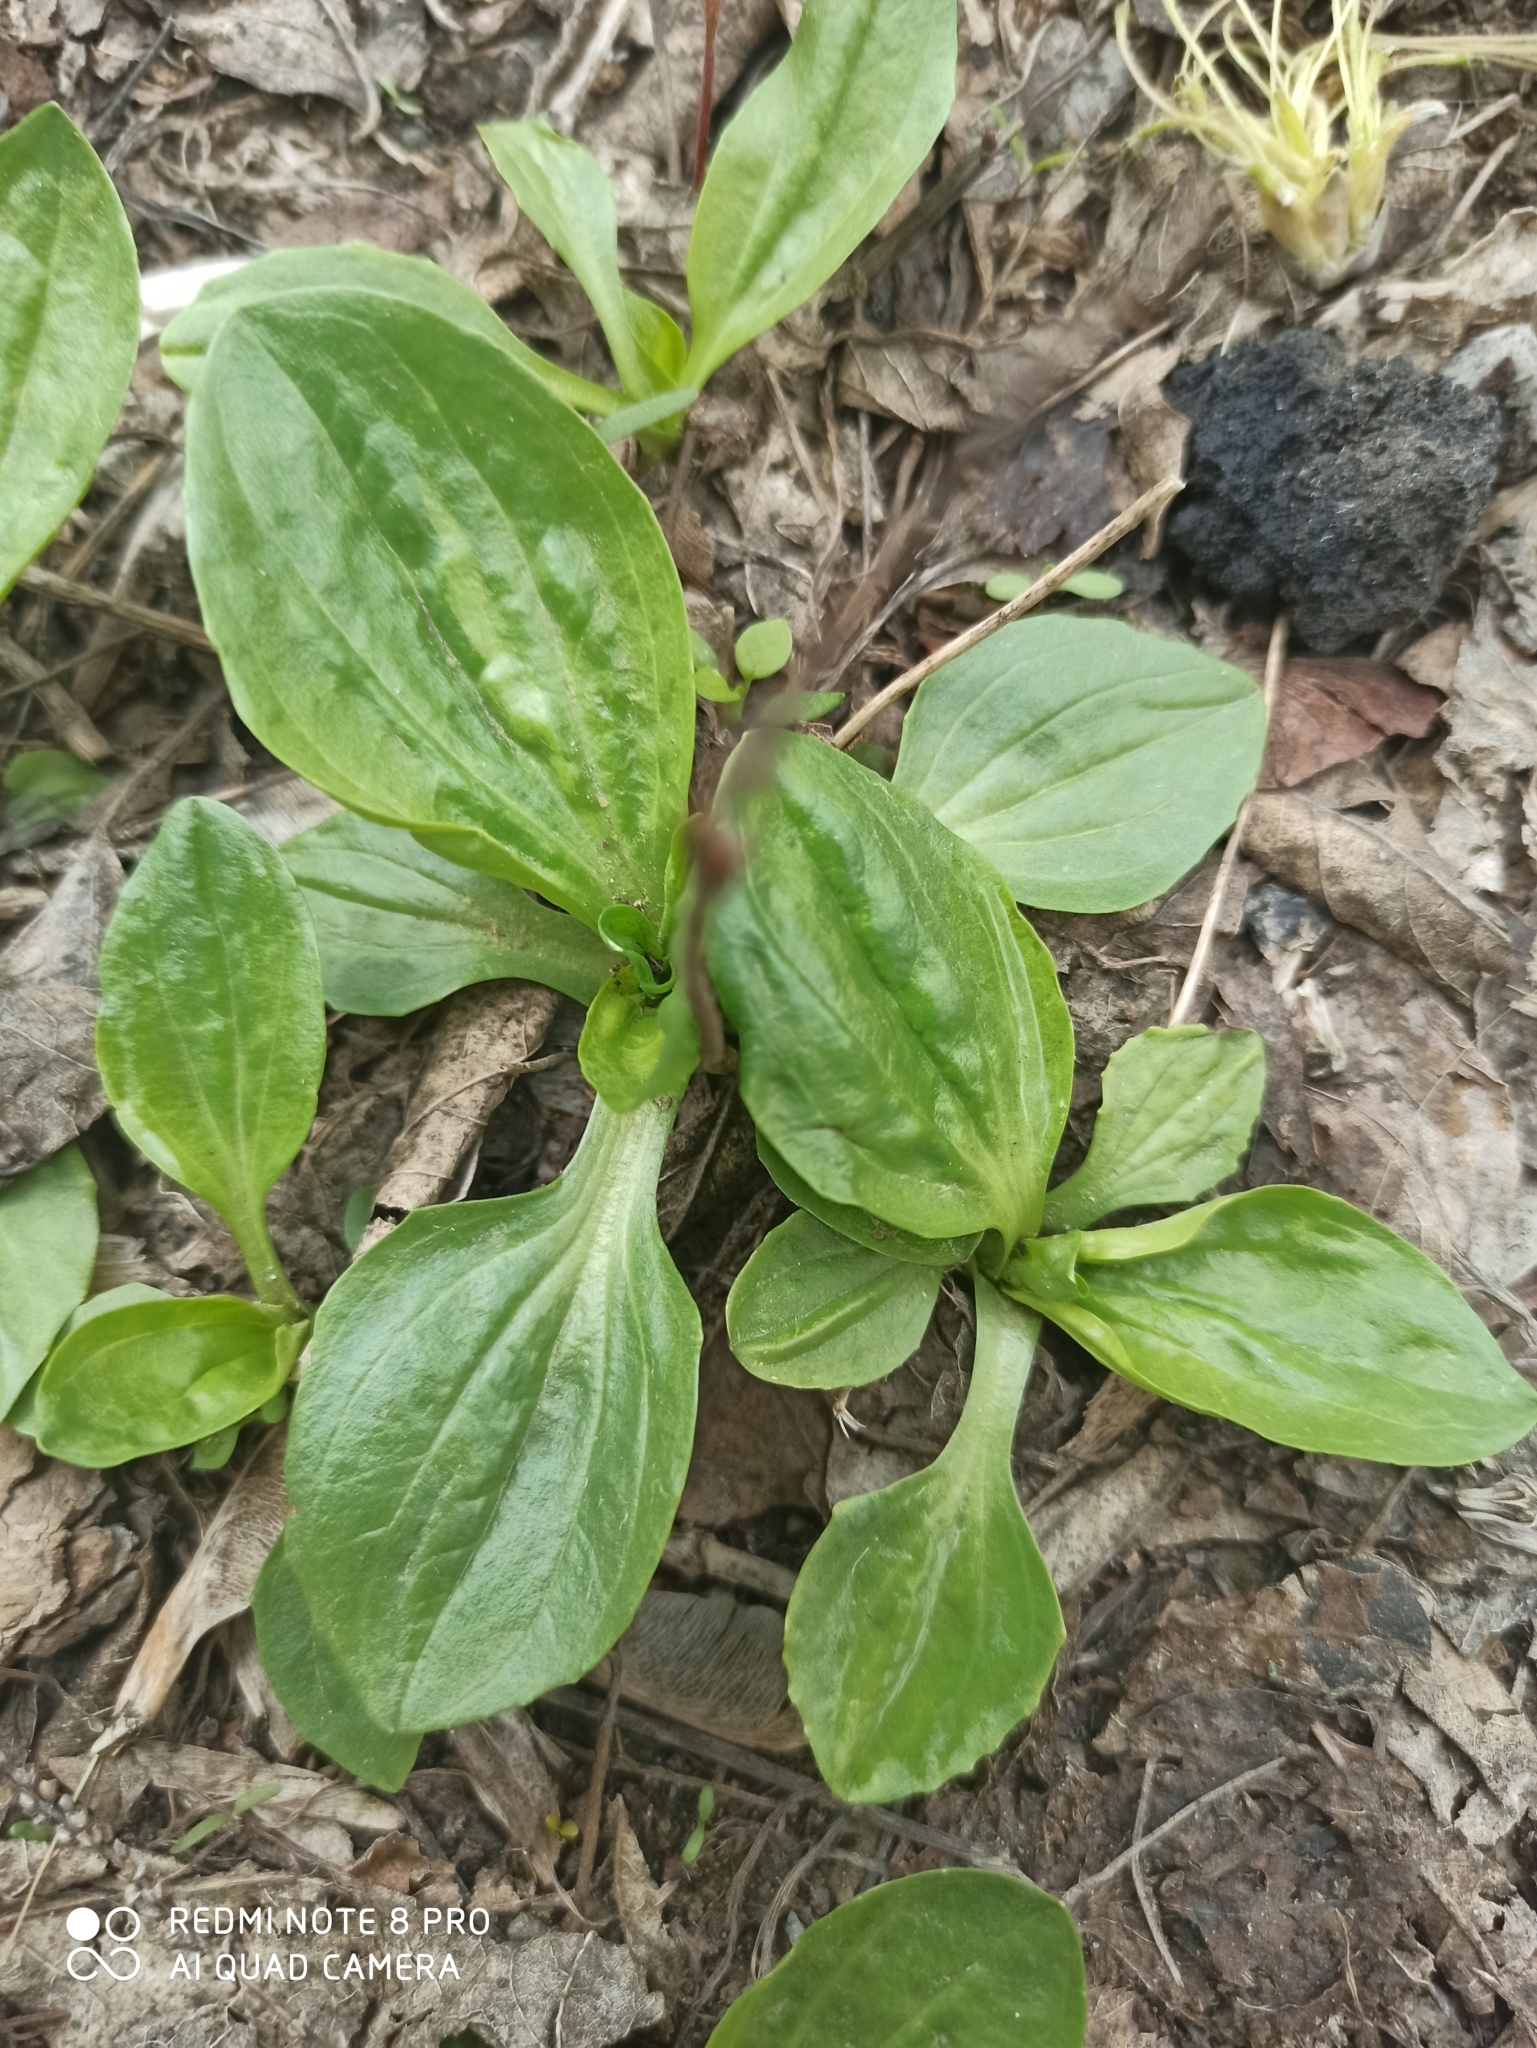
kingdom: Plantae
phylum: Tracheophyta
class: Magnoliopsida
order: Lamiales
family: Plantaginaceae
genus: Plantago
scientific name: Plantago major
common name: Common plantain
